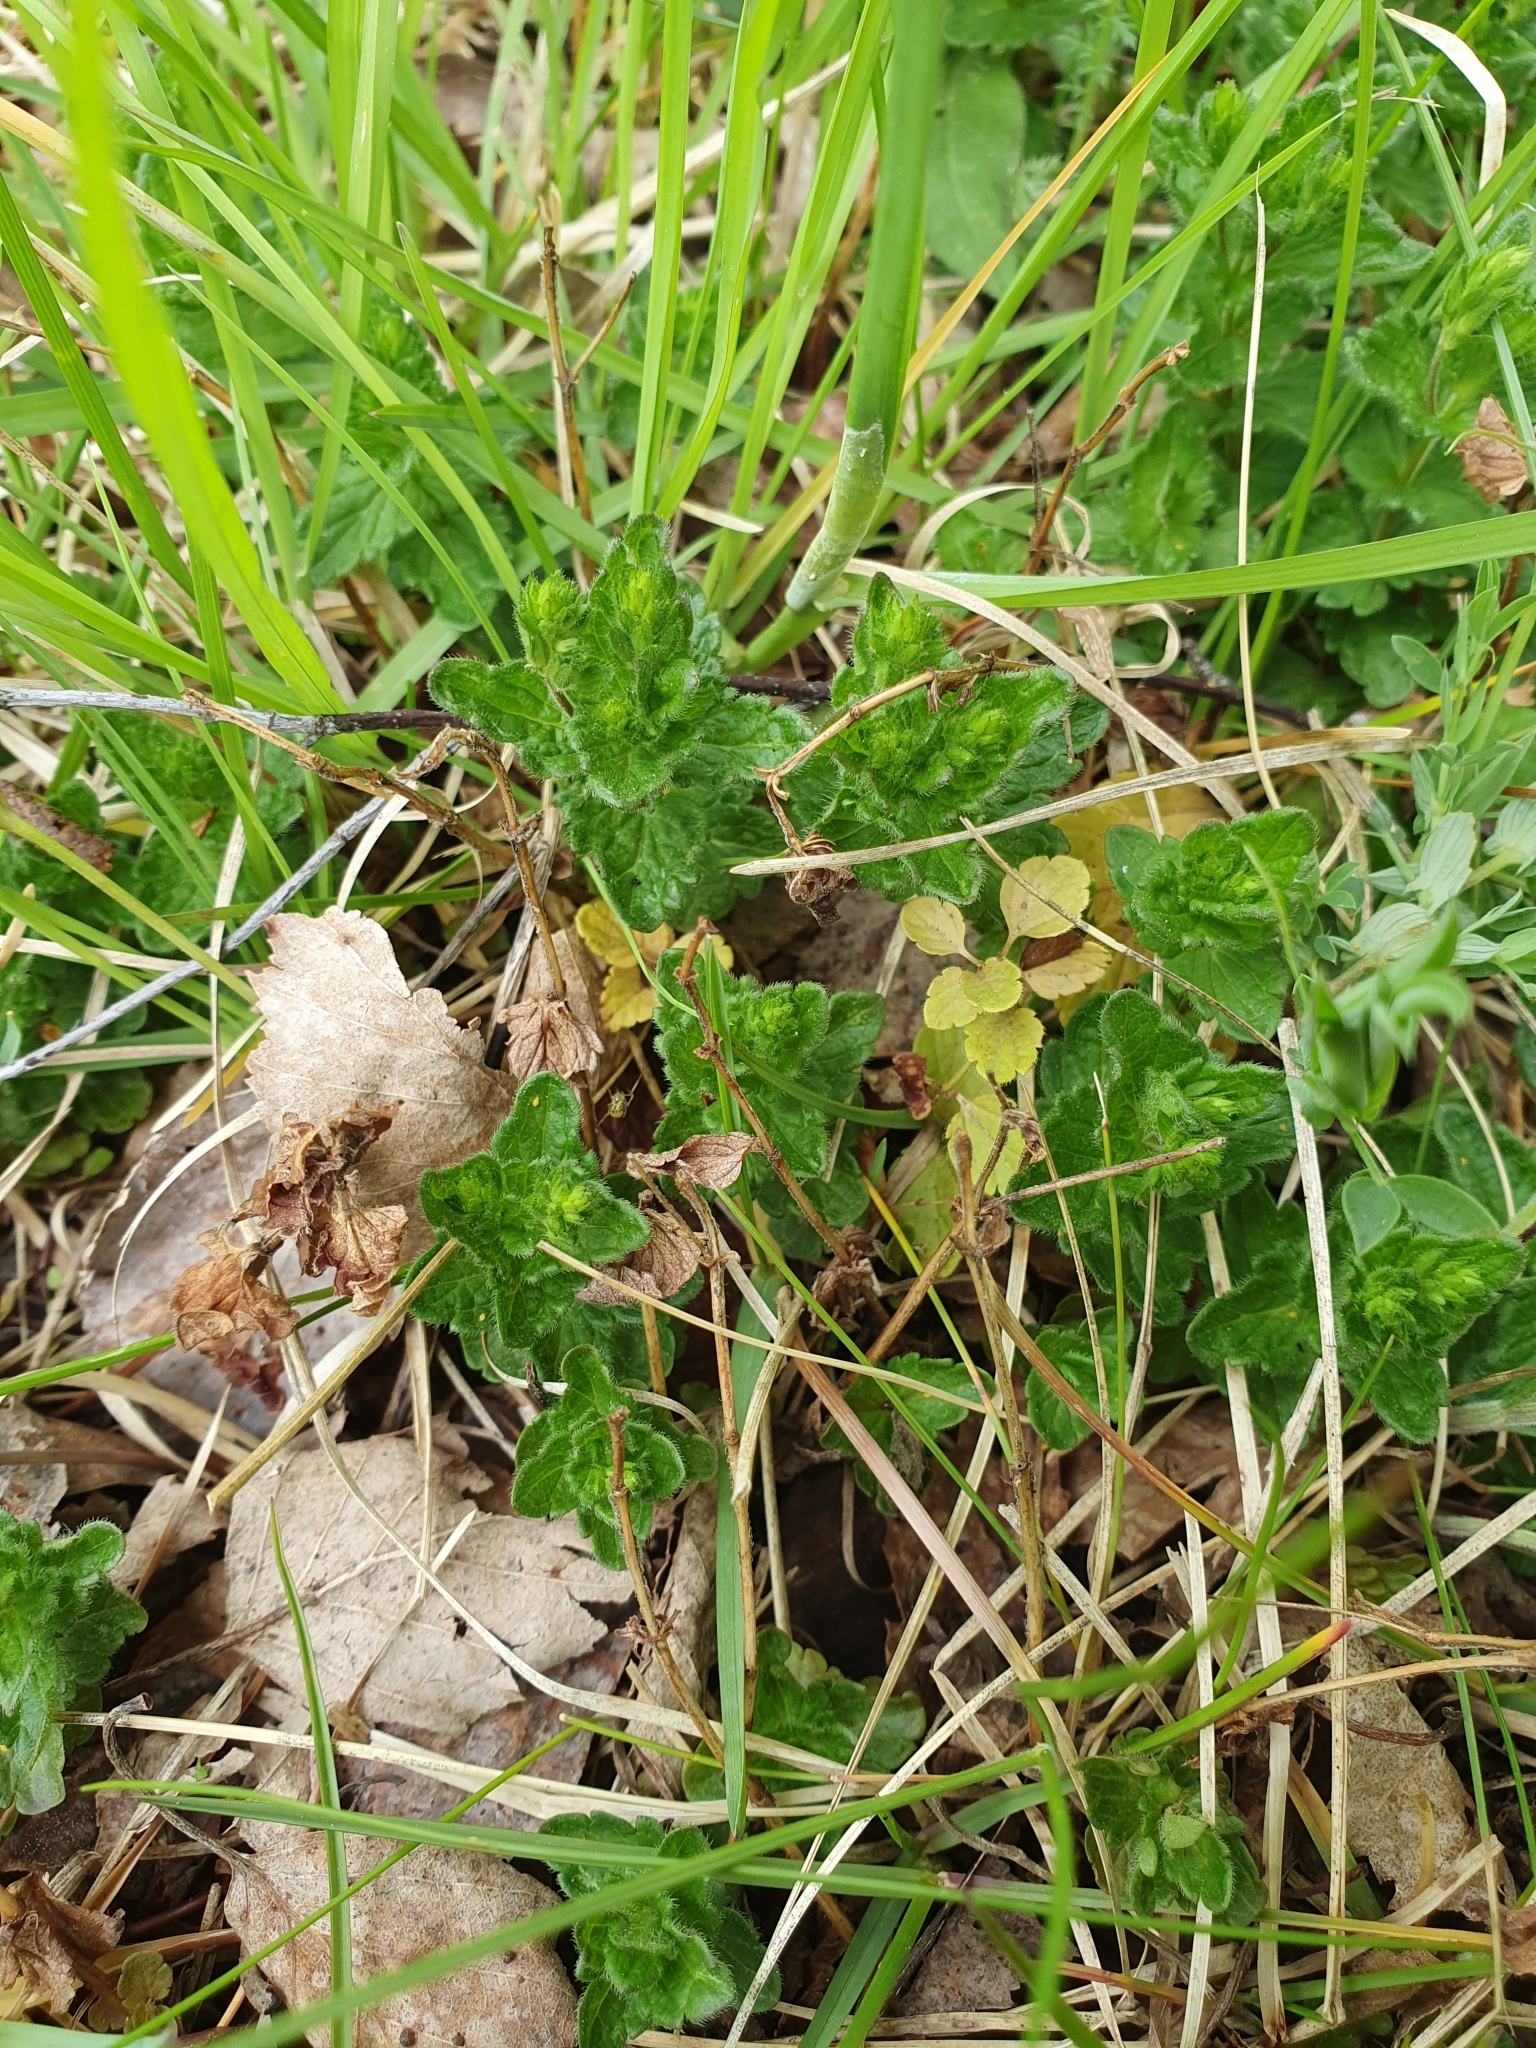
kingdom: Plantae
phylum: Tracheophyta
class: Magnoliopsida
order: Lamiales
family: Plantaginaceae
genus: Veronica
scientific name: Veronica chamaedrys
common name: Germander speedwell
